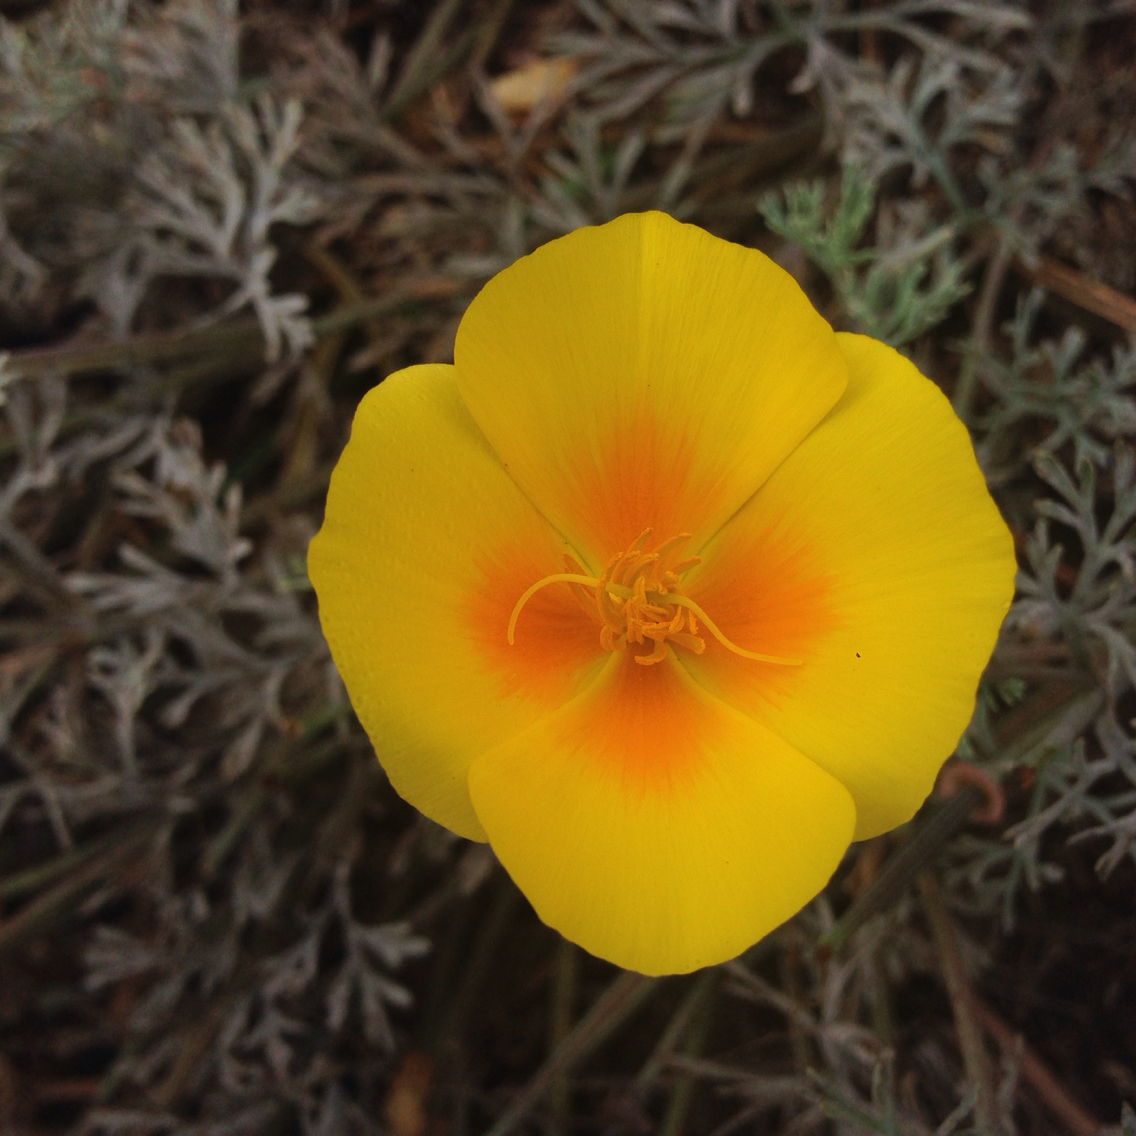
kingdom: Plantae
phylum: Tracheophyta
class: Magnoliopsida
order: Ranunculales
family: Papaveraceae
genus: Eschscholzia
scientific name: Eschscholzia californica
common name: California poppy
